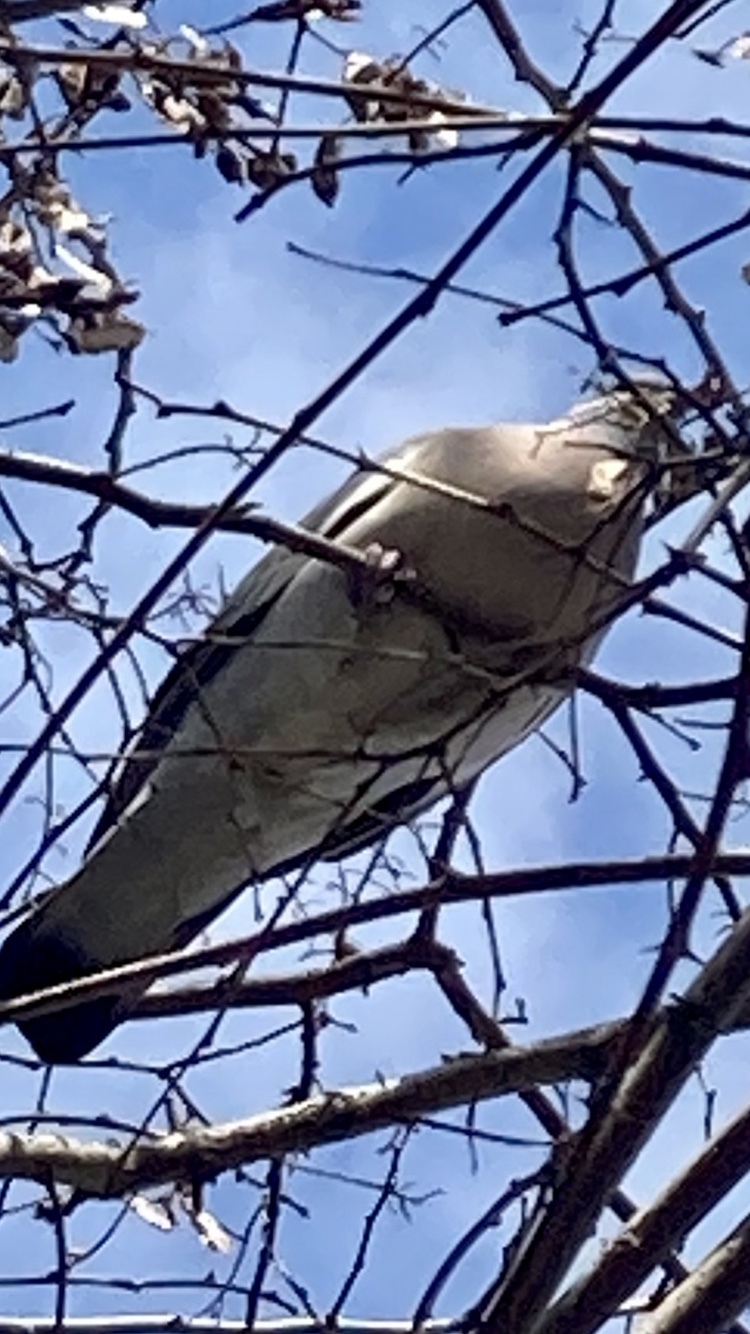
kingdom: Animalia
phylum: Chordata
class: Aves
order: Columbiformes
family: Columbidae
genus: Columba
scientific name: Columba palumbus
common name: Common wood pigeon
